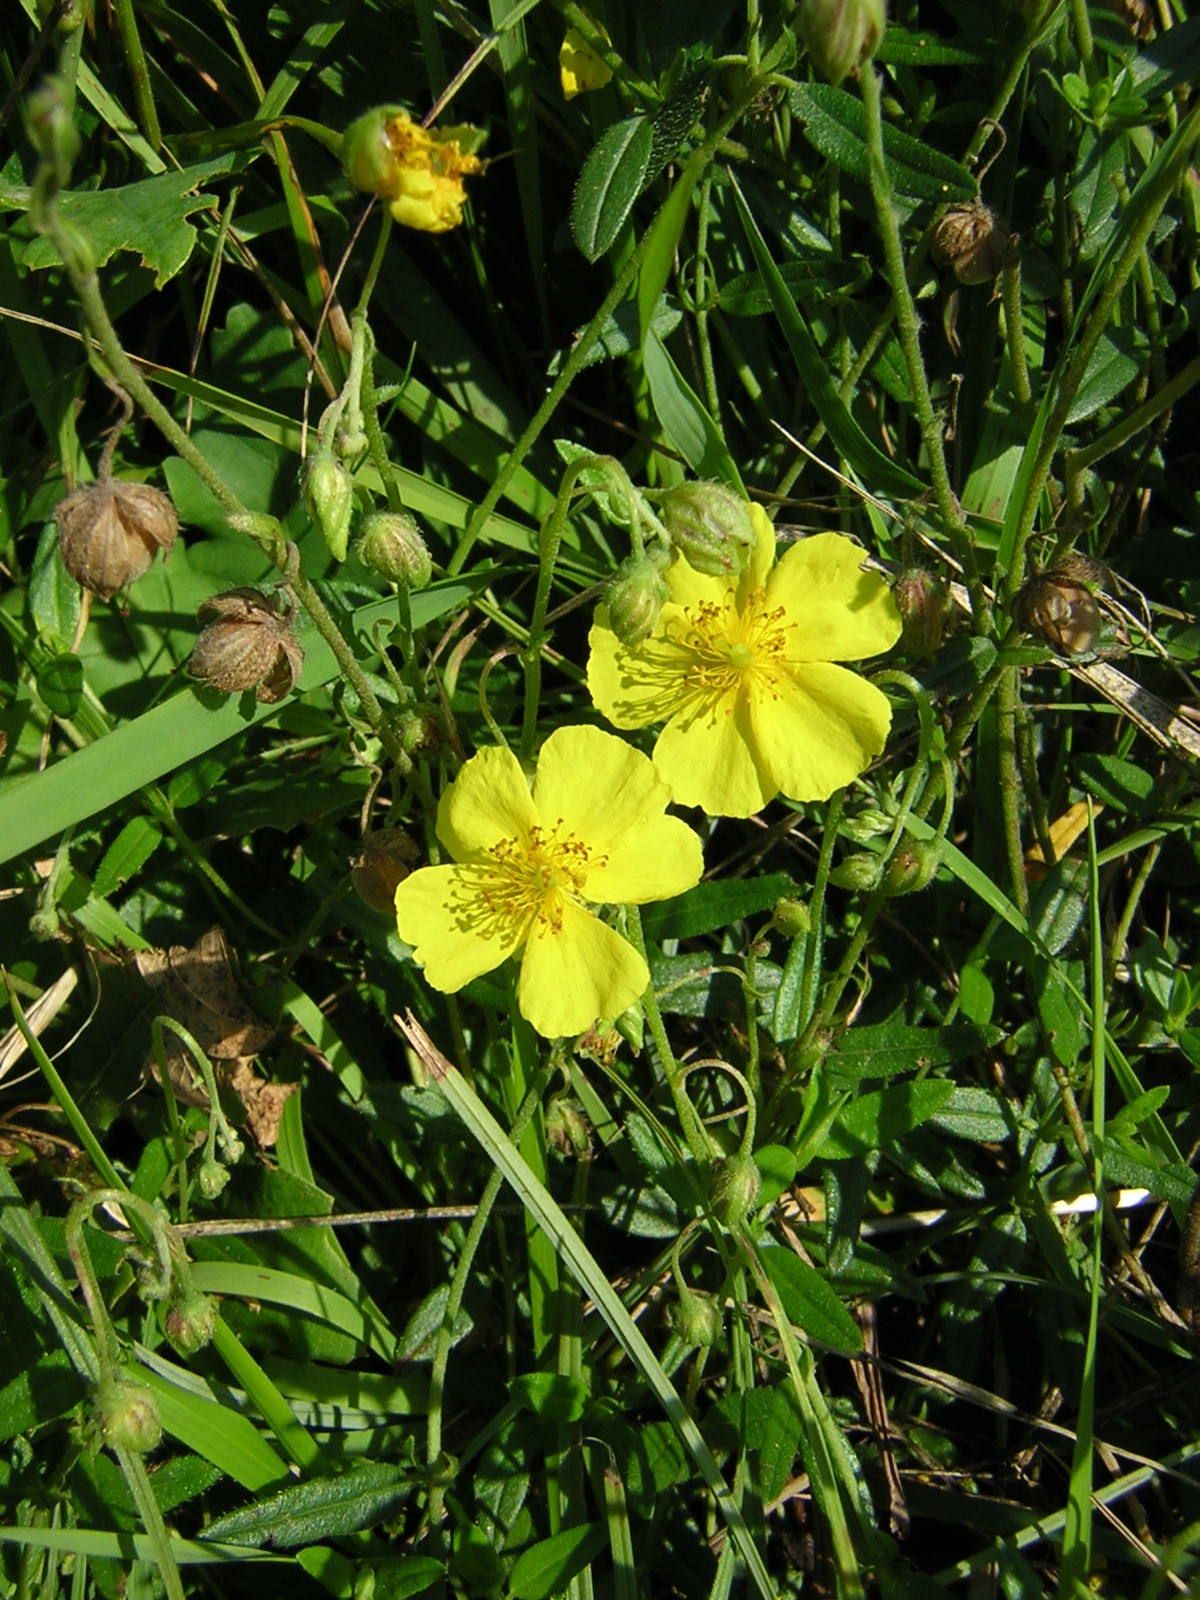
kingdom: Plantae
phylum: Tracheophyta
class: Magnoliopsida
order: Malvales
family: Cistaceae
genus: Helianthemum
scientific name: Helianthemum nummularium
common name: Common rock-rose
